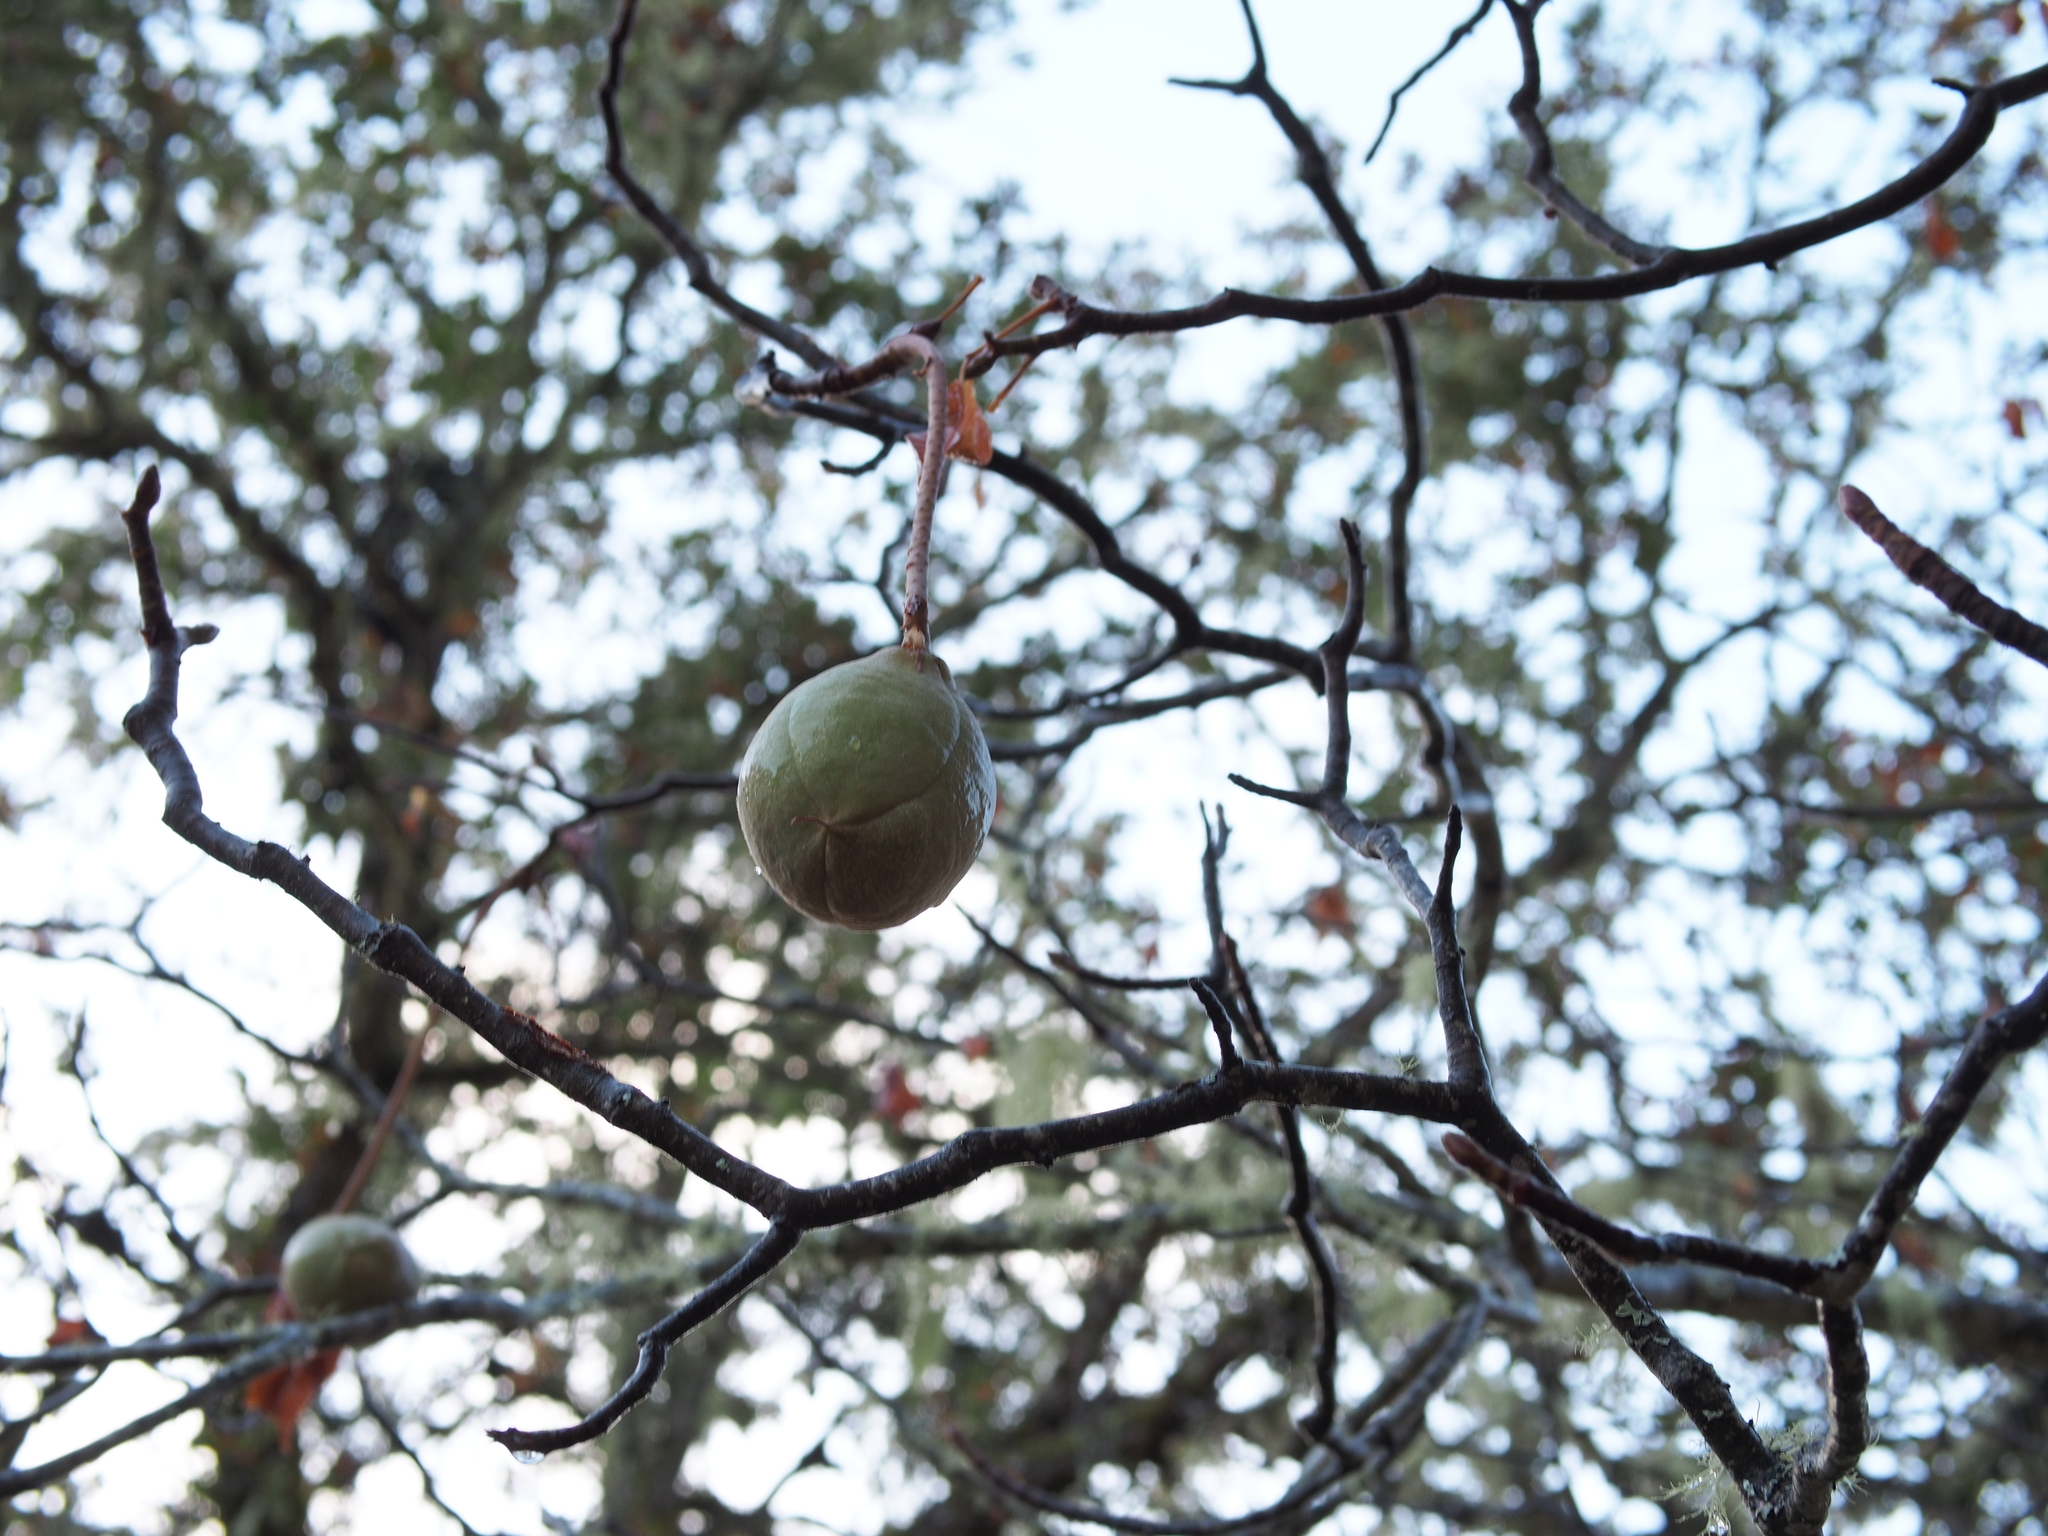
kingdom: Plantae
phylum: Tracheophyta
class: Magnoliopsida
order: Sapindales
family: Sapindaceae
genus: Aesculus
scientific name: Aesculus californica
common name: California buckeye
